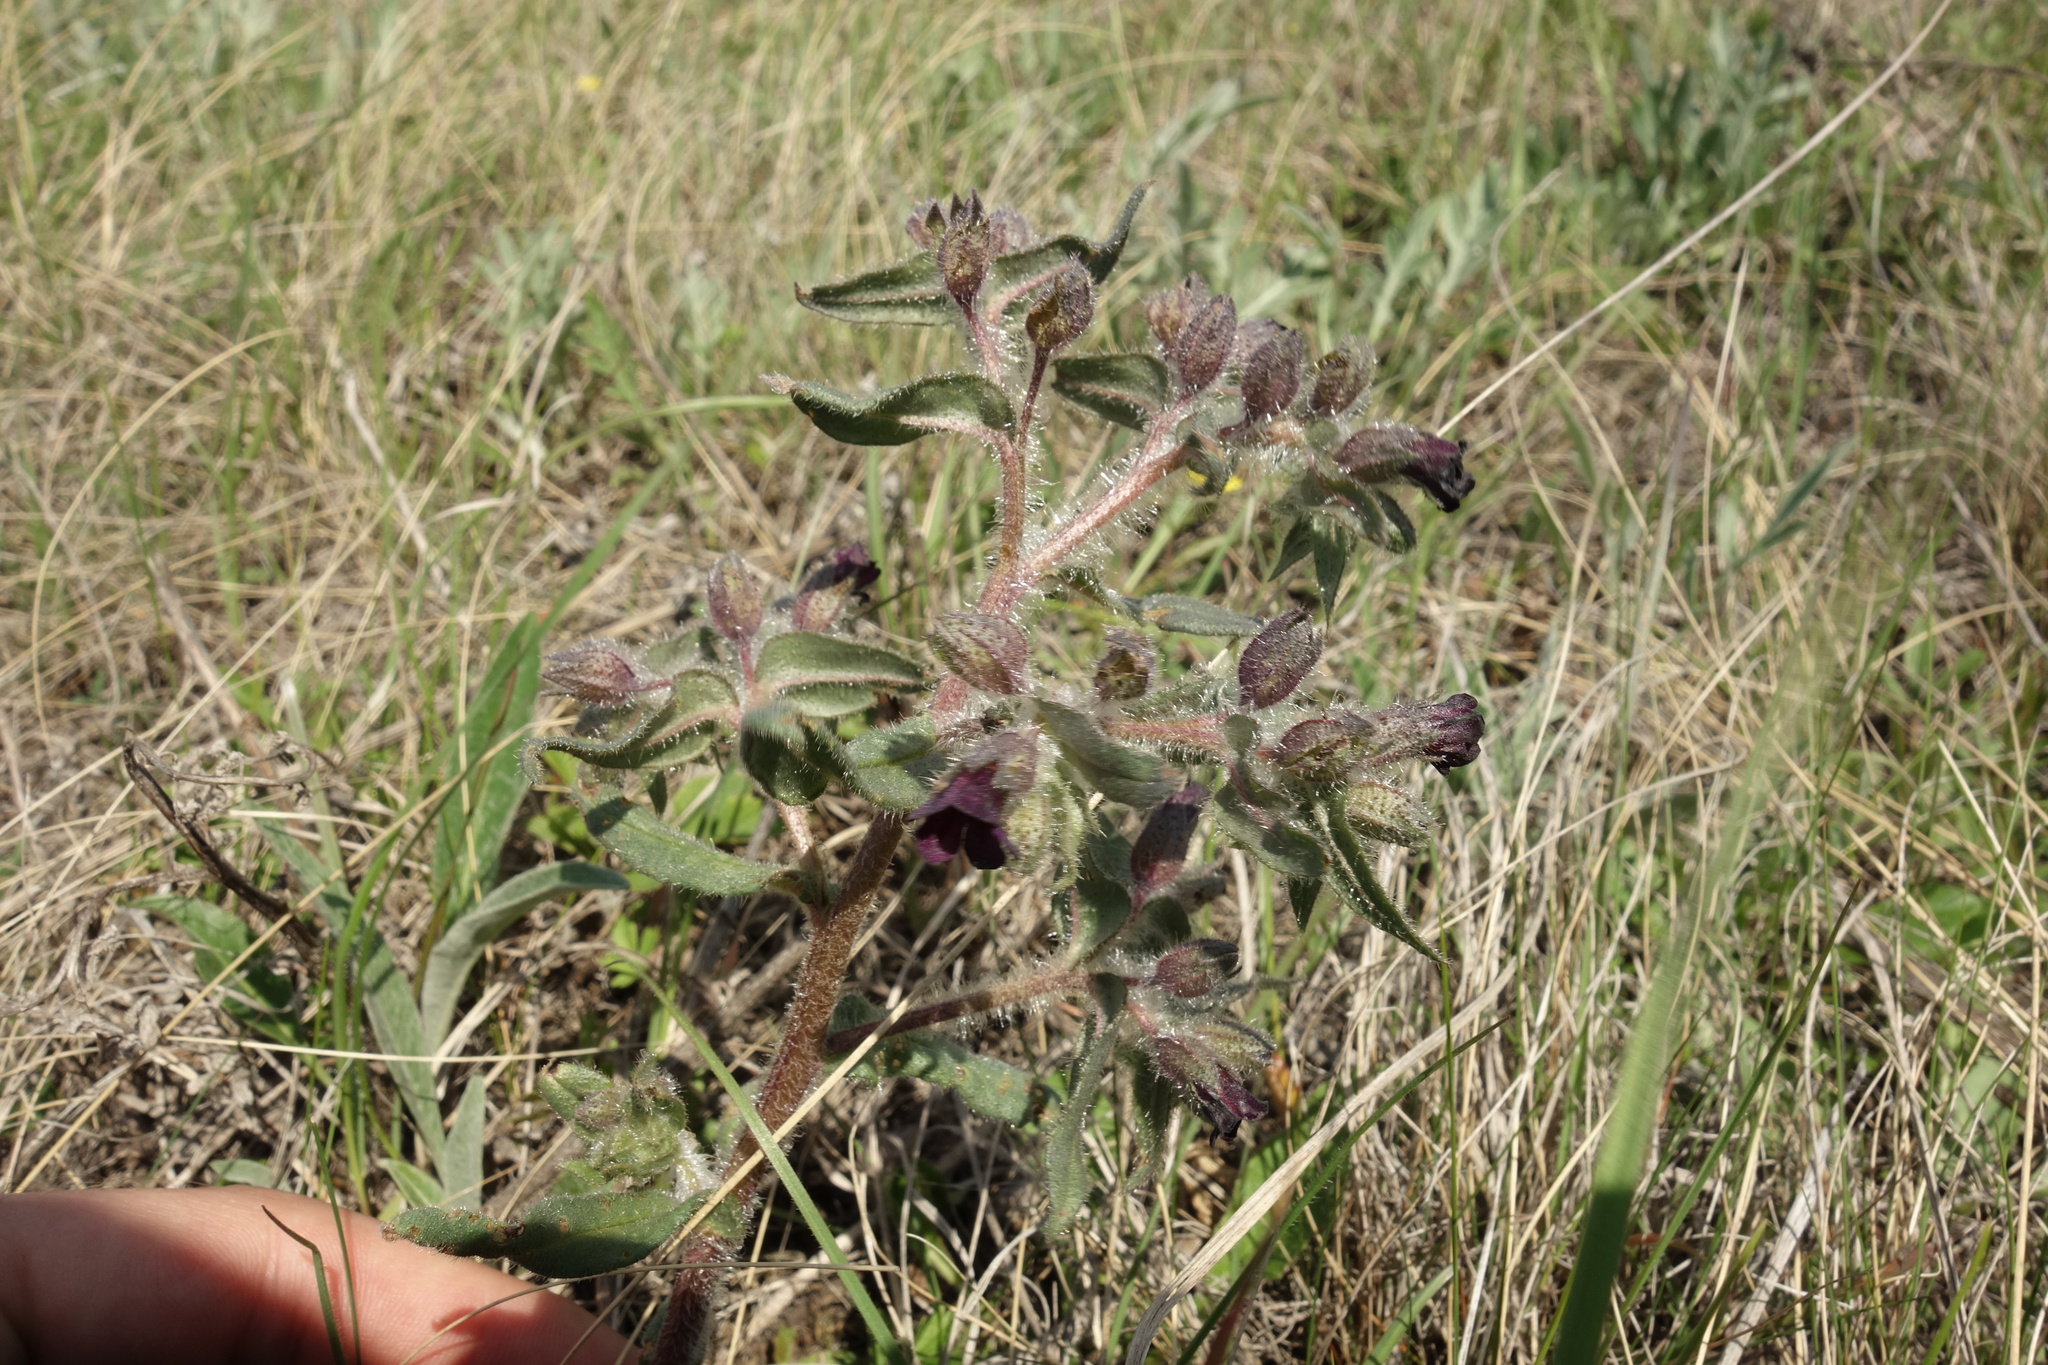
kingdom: Plantae
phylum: Tracheophyta
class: Magnoliopsida
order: Boraginales
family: Boraginaceae
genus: Nonea
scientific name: Nonea pulla
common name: Brown nonea
